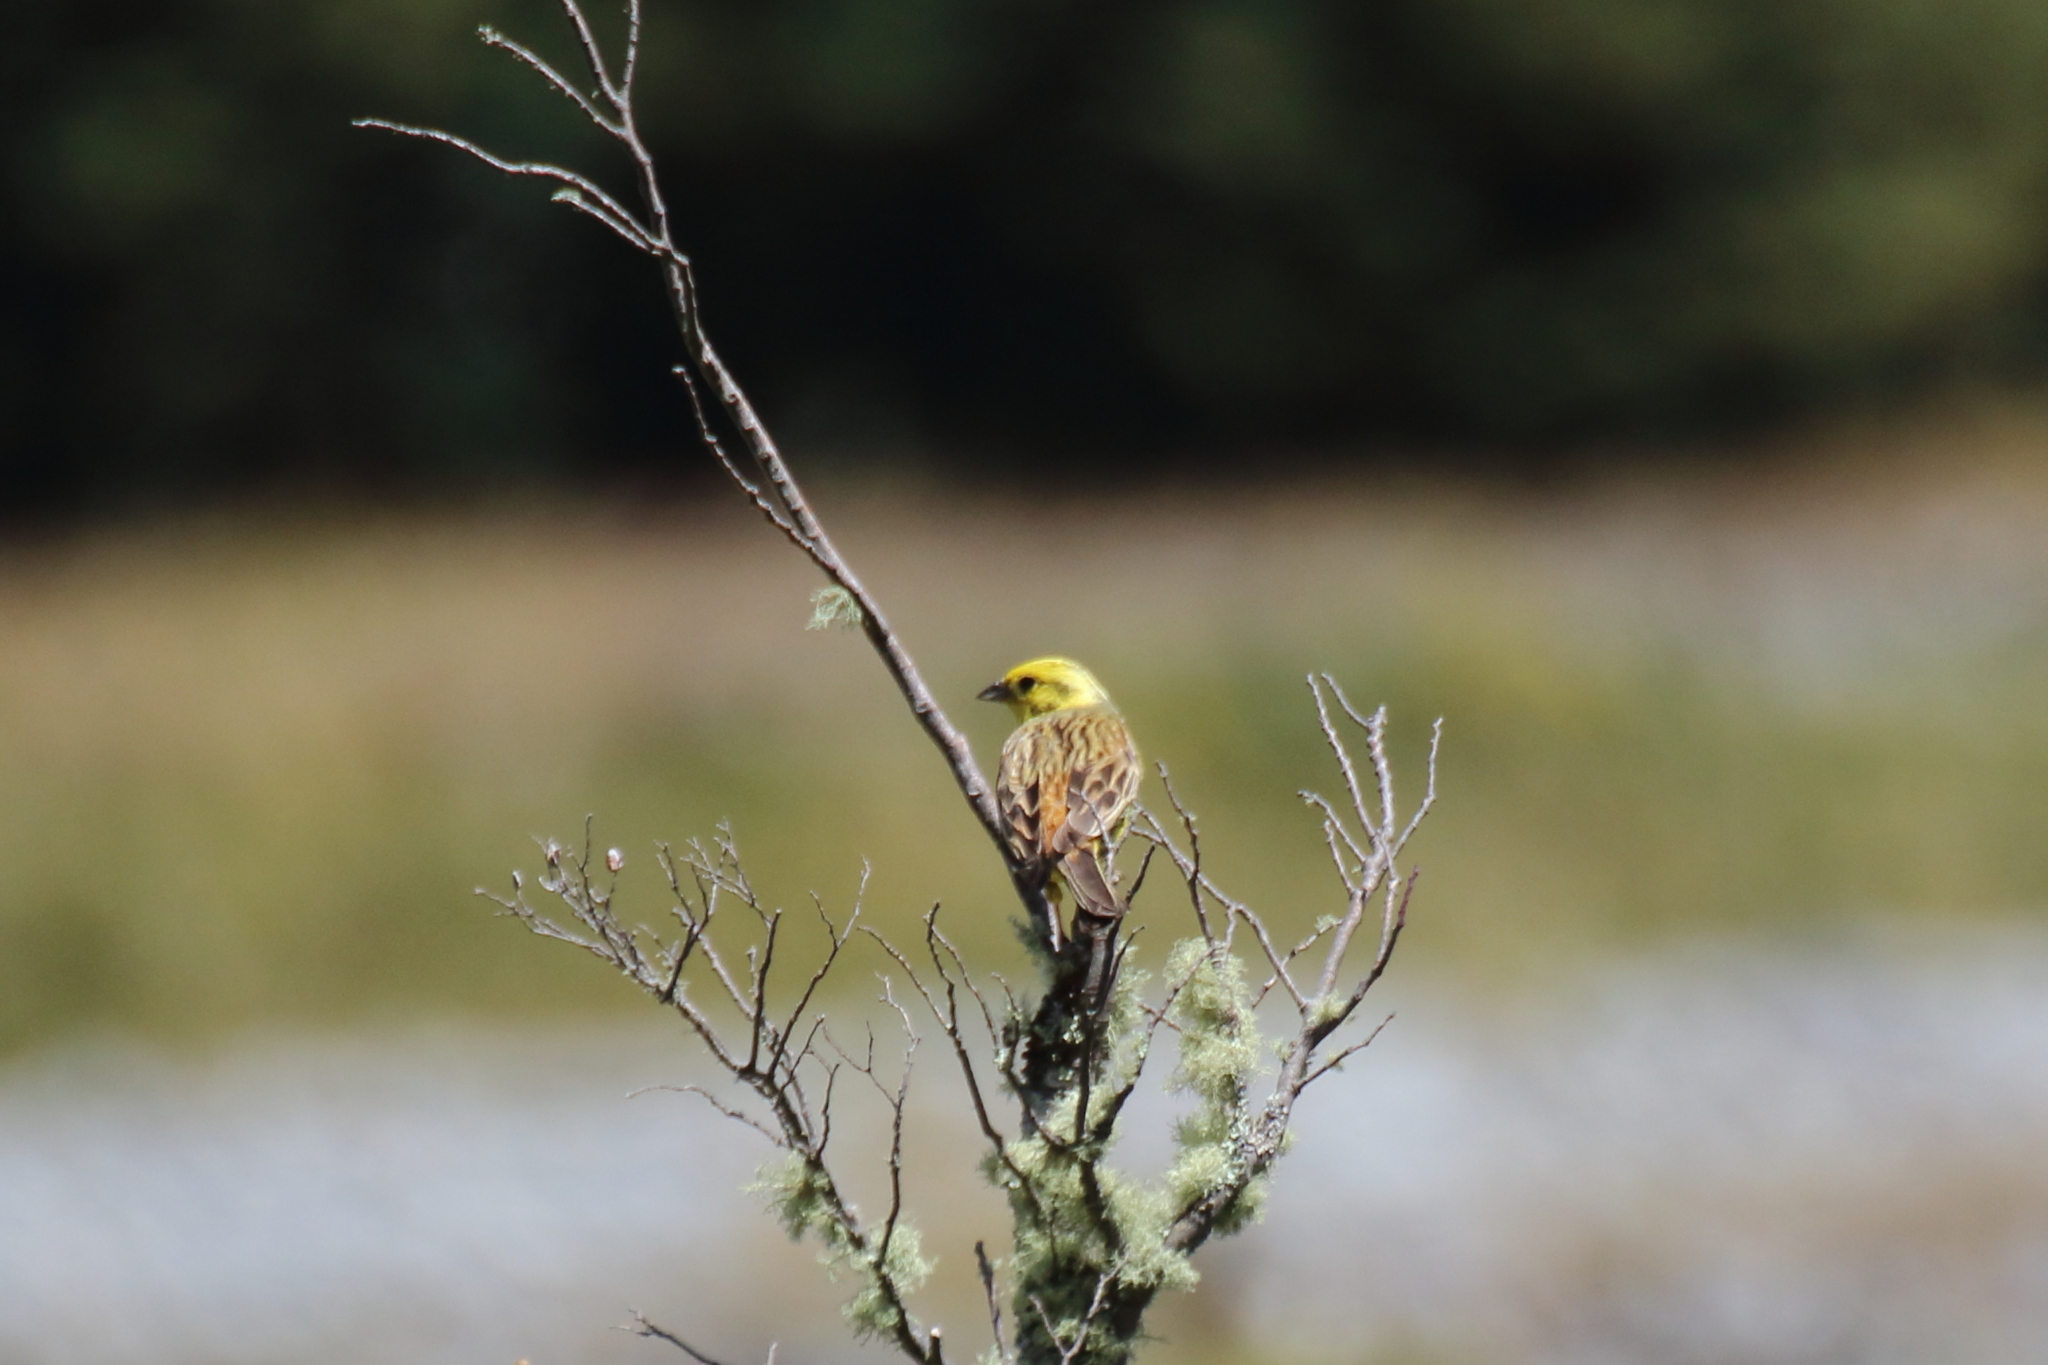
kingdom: Animalia
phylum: Chordata
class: Aves
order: Passeriformes
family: Emberizidae
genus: Emberiza
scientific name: Emberiza citrinella
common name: Yellowhammer
